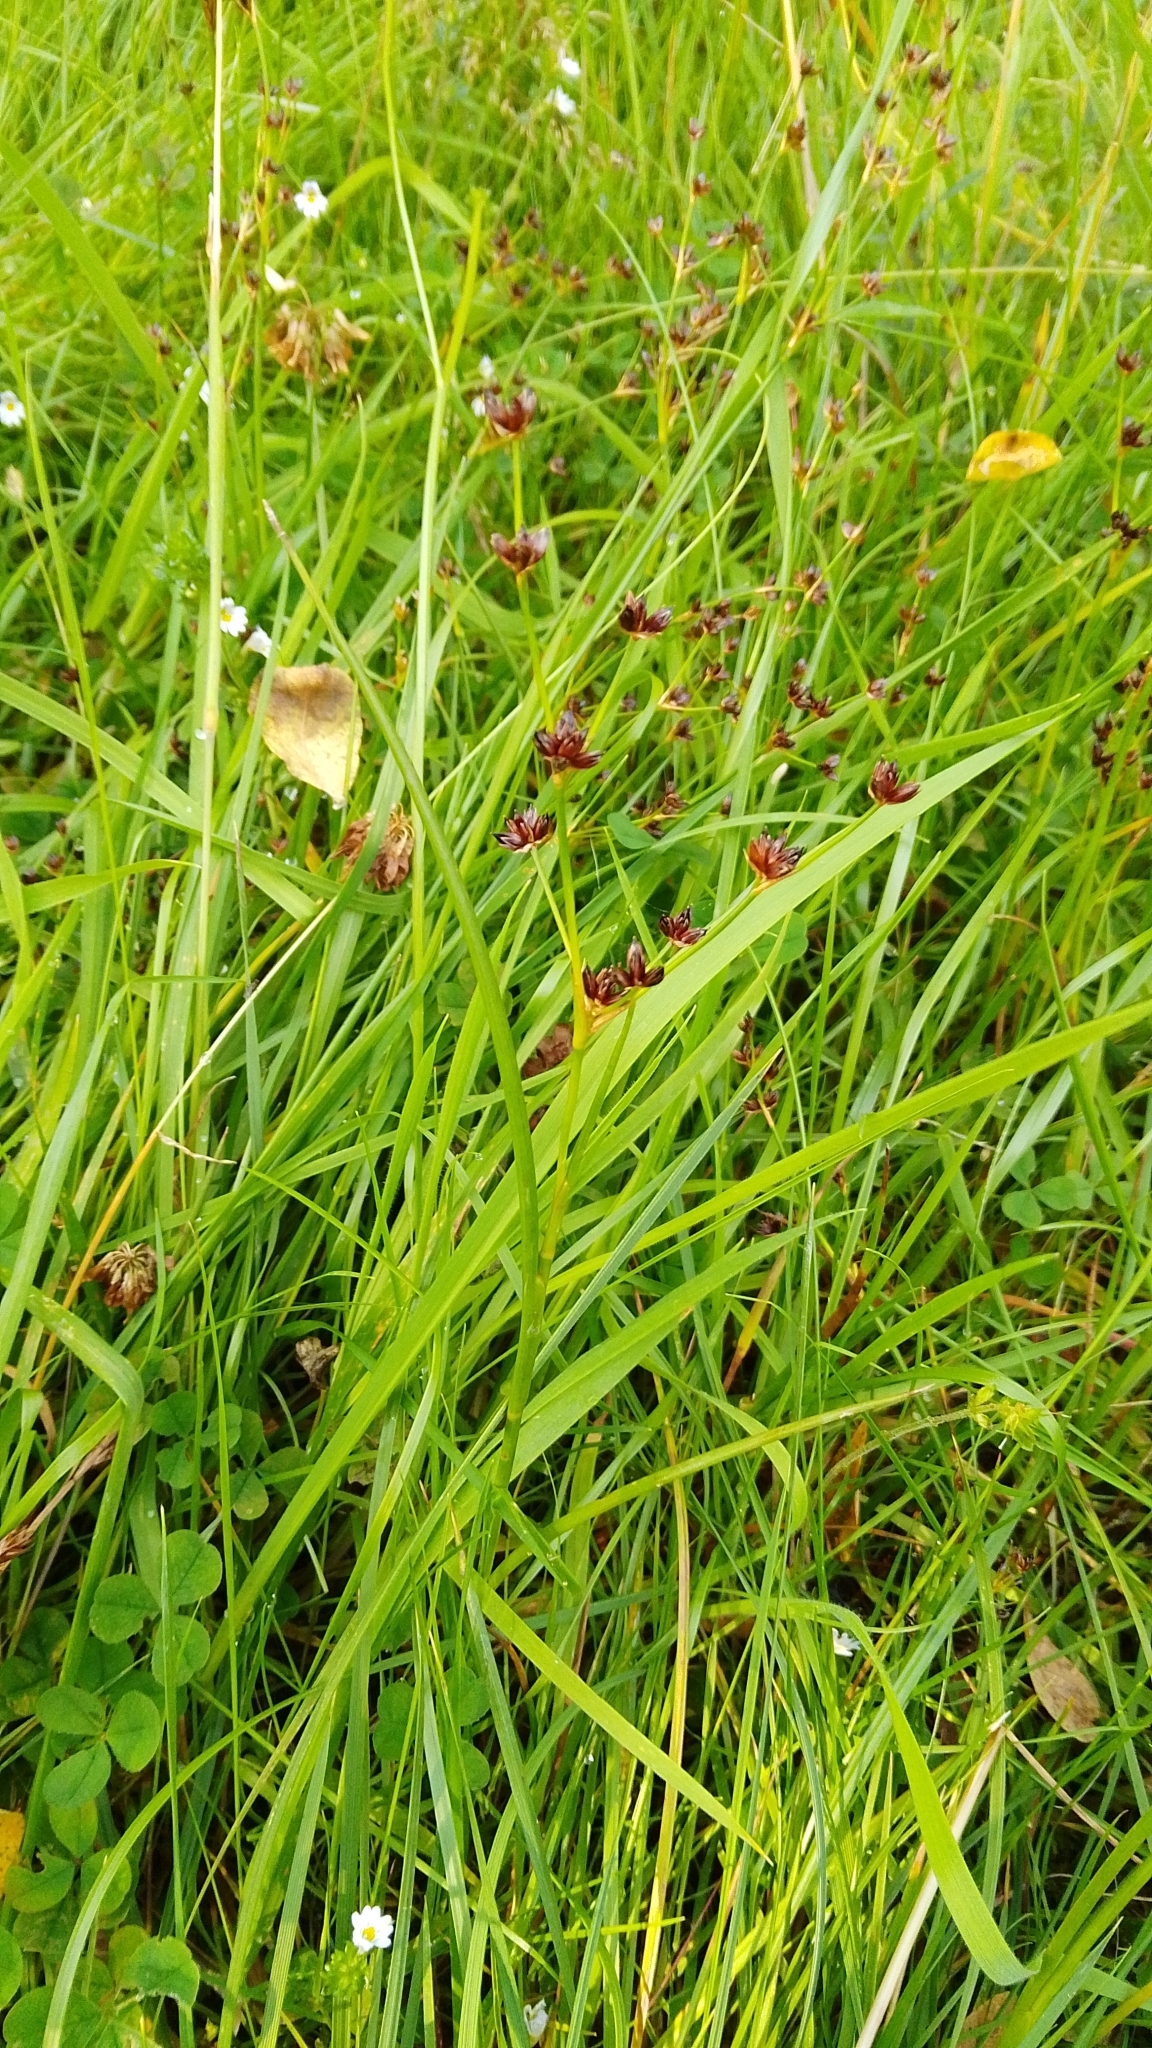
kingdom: Plantae
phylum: Tracheophyta
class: Liliopsida
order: Poales
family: Juncaceae
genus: Juncus
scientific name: Juncus articulatus
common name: Jointed rush
